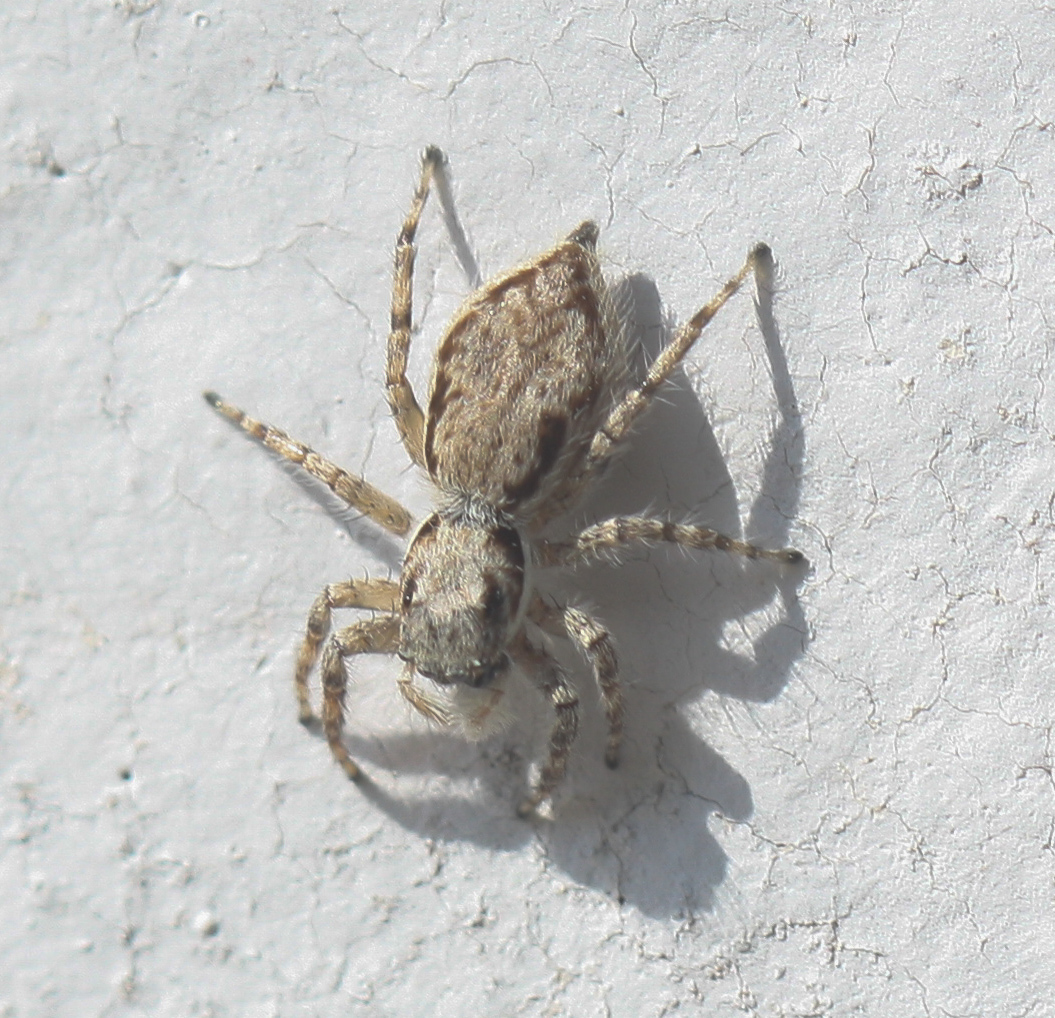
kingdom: Animalia
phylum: Arthropoda
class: Arachnida
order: Araneae
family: Salticidae
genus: Menemerus
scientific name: Menemerus bivittatus
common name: Gray wall jumper
